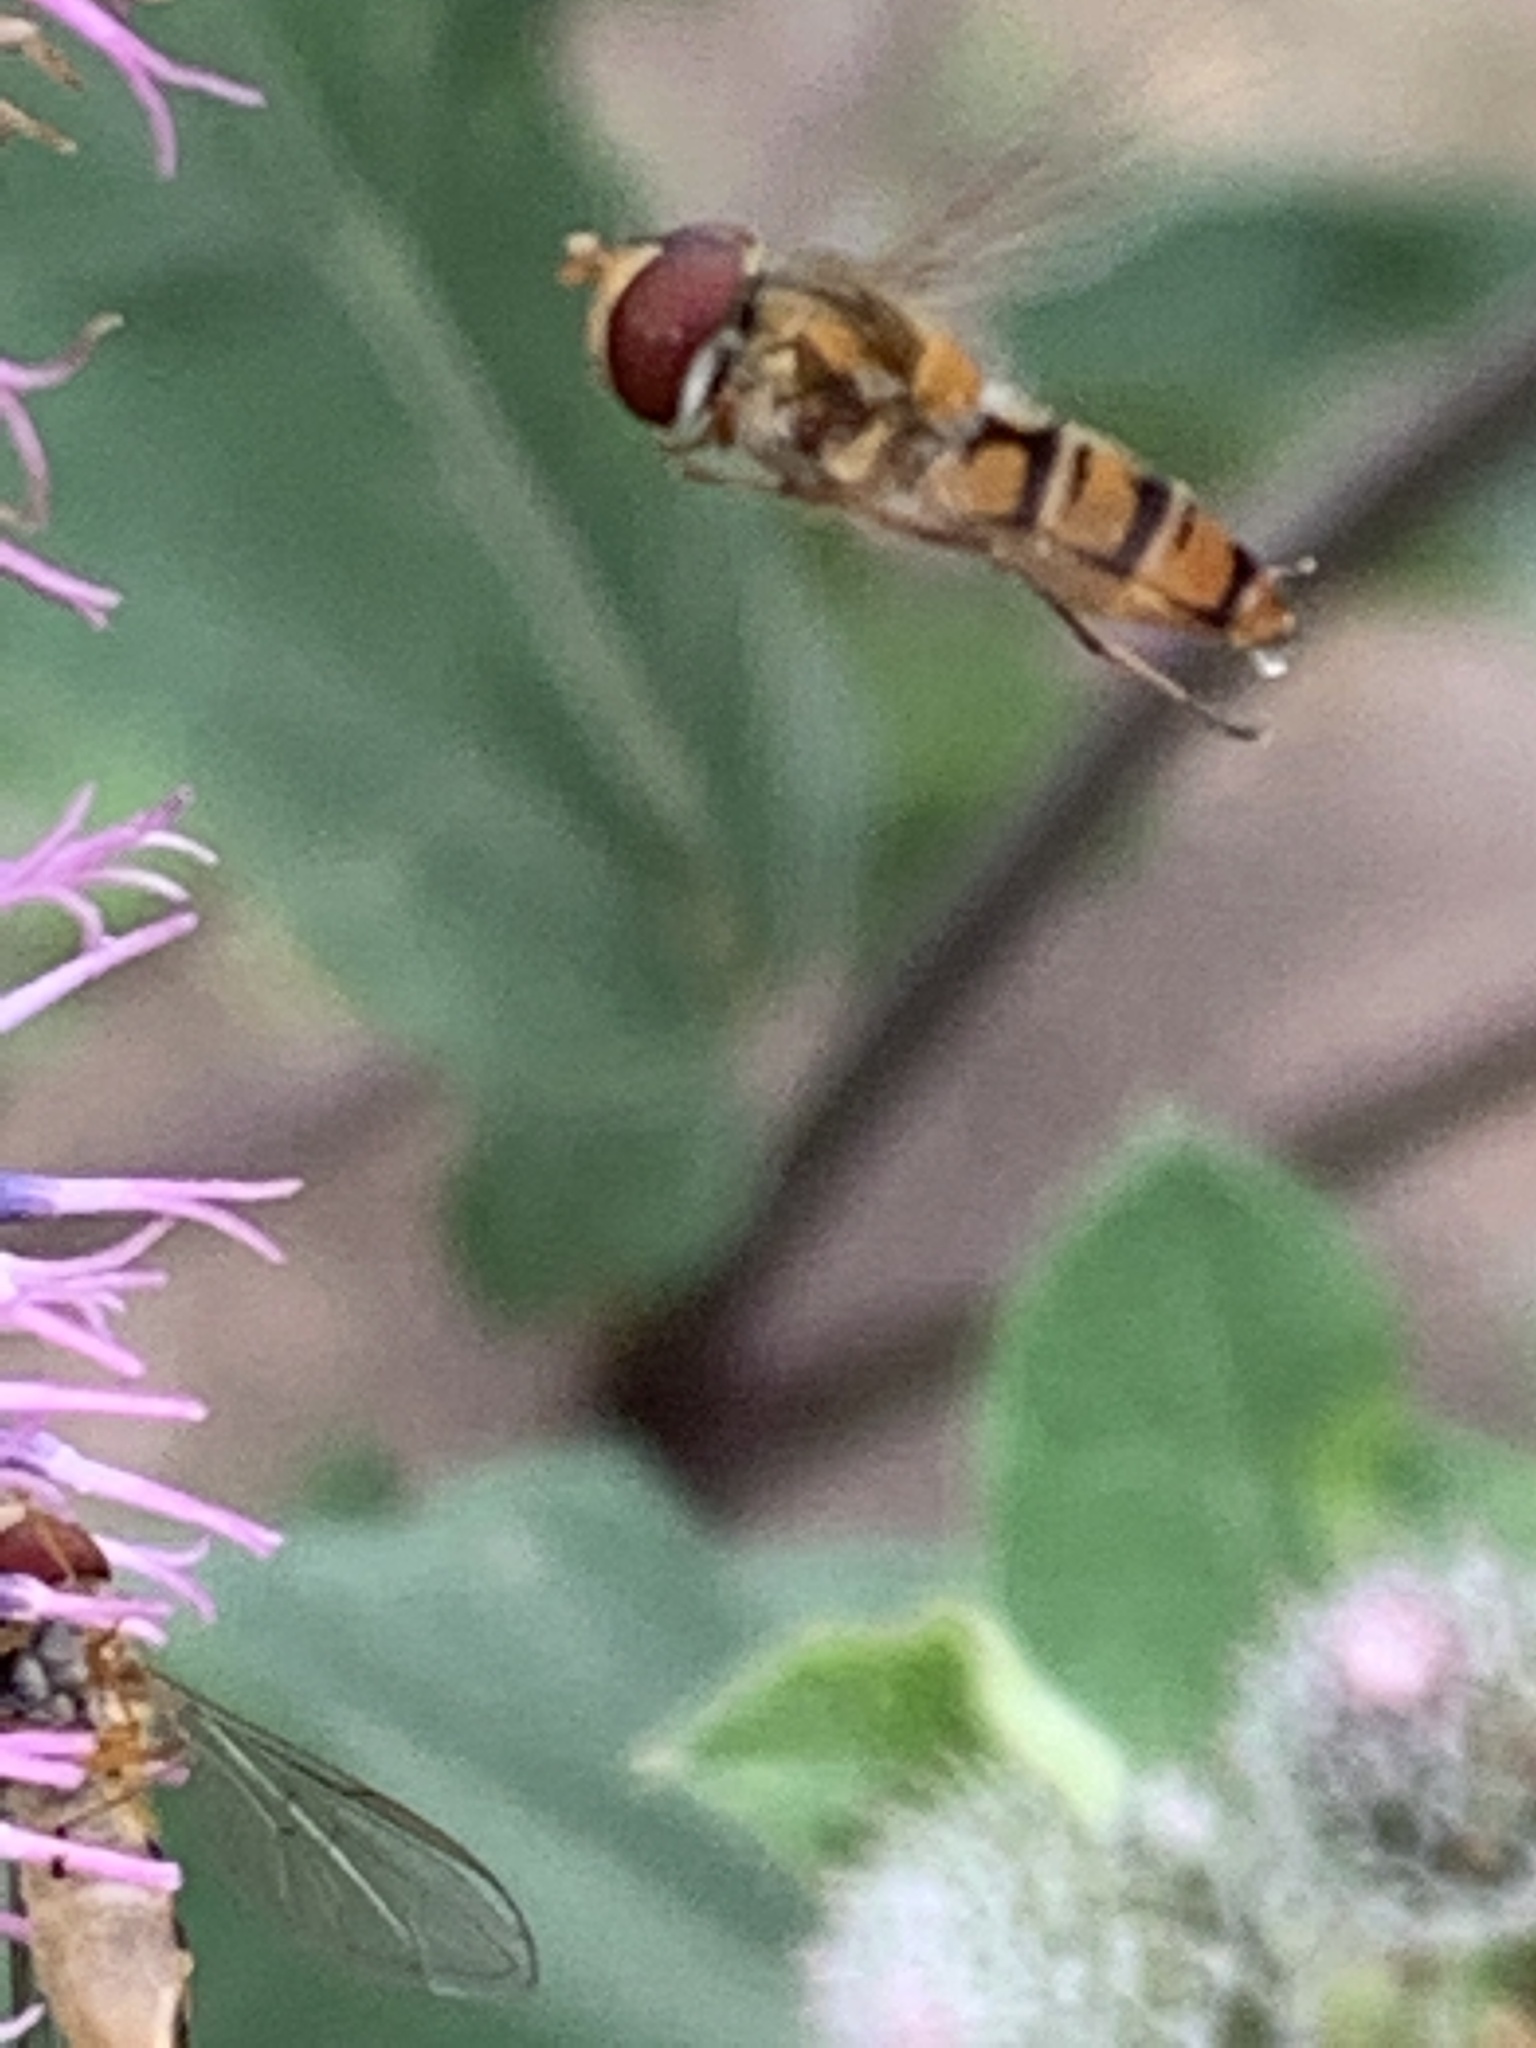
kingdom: Animalia
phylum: Arthropoda
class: Insecta
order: Diptera
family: Syrphidae
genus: Episyrphus
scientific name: Episyrphus balteatus
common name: Marmalade hoverfly
